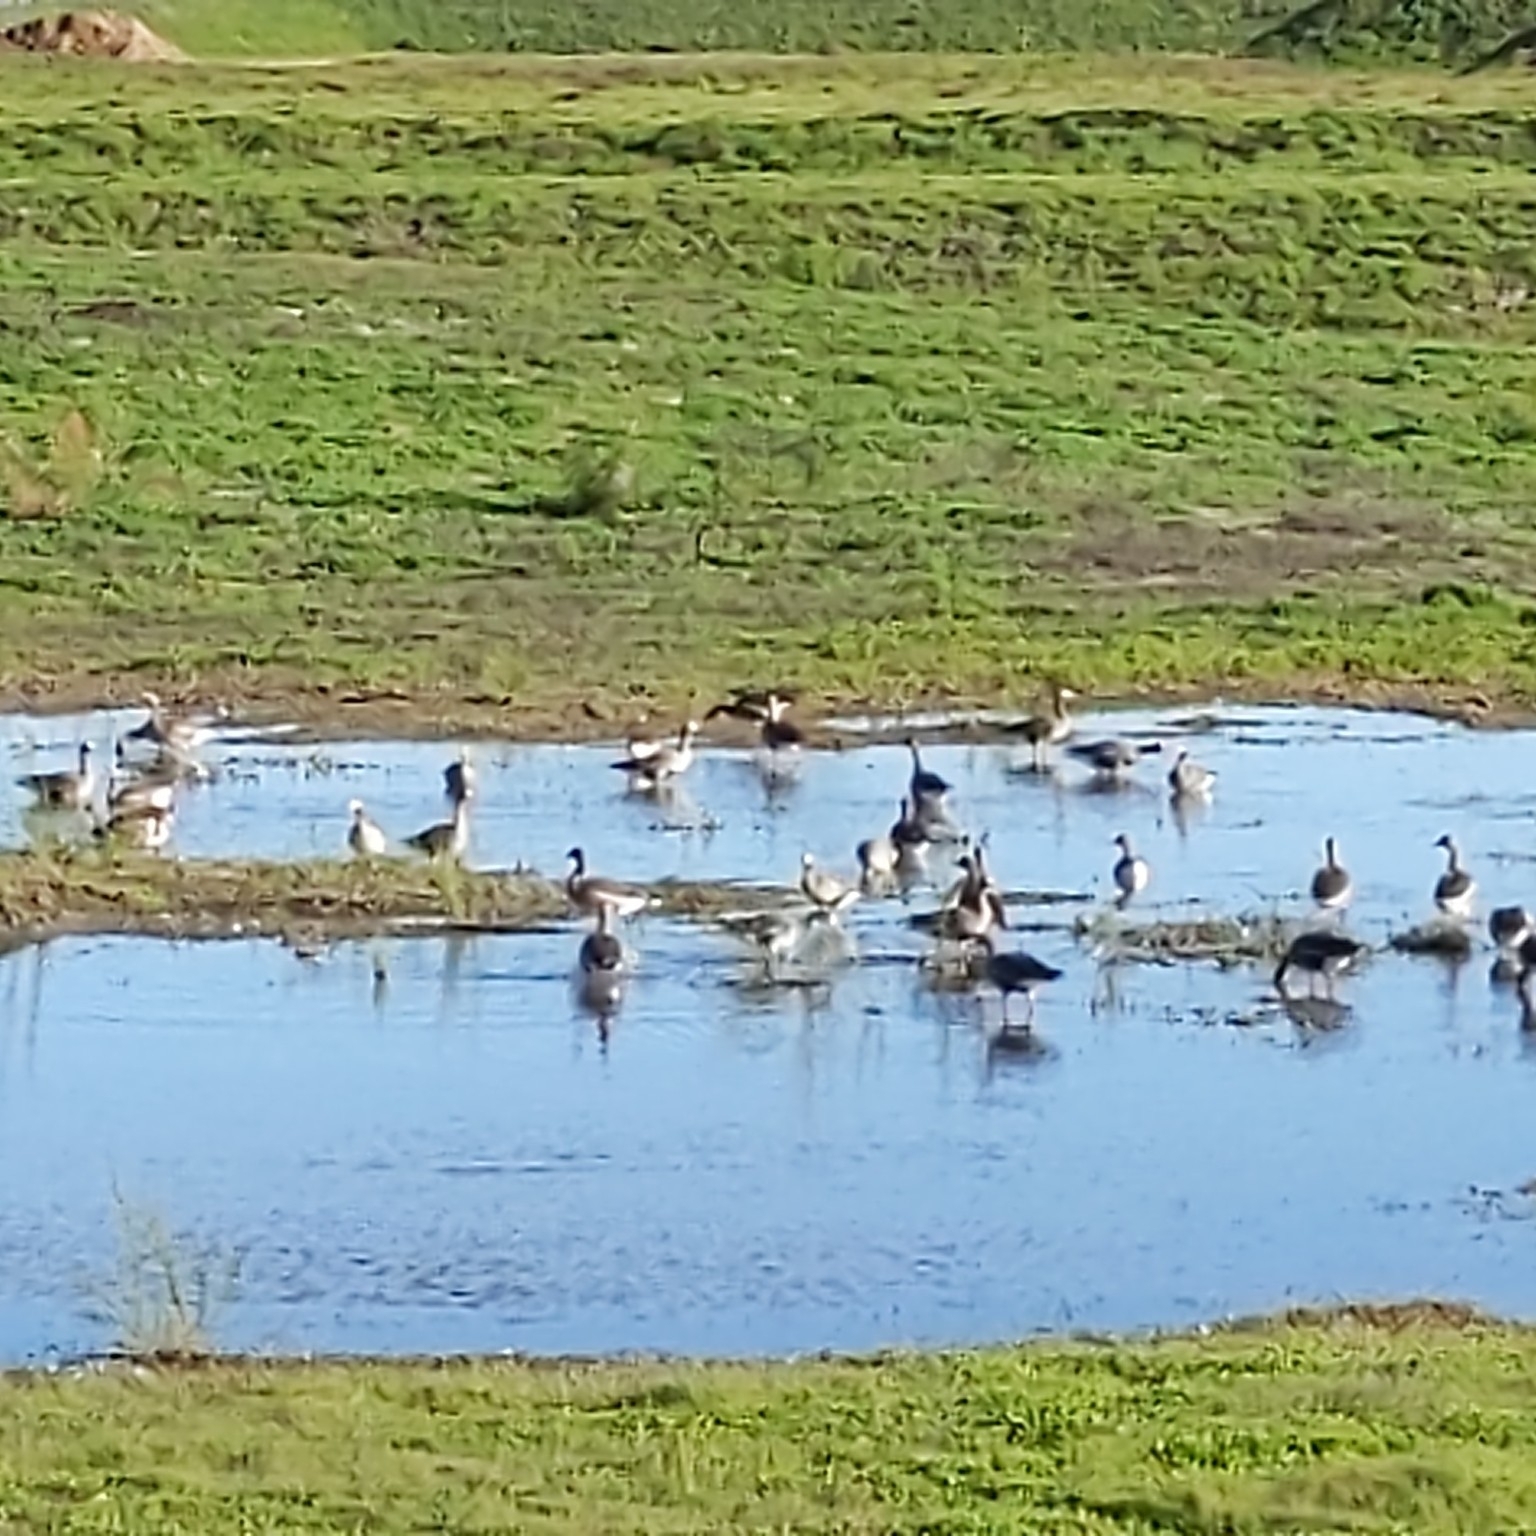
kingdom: Animalia
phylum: Chordata
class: Aves
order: Anseriformes
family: Anatidae
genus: Branta
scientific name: Branta canadensis
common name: Canada goose
